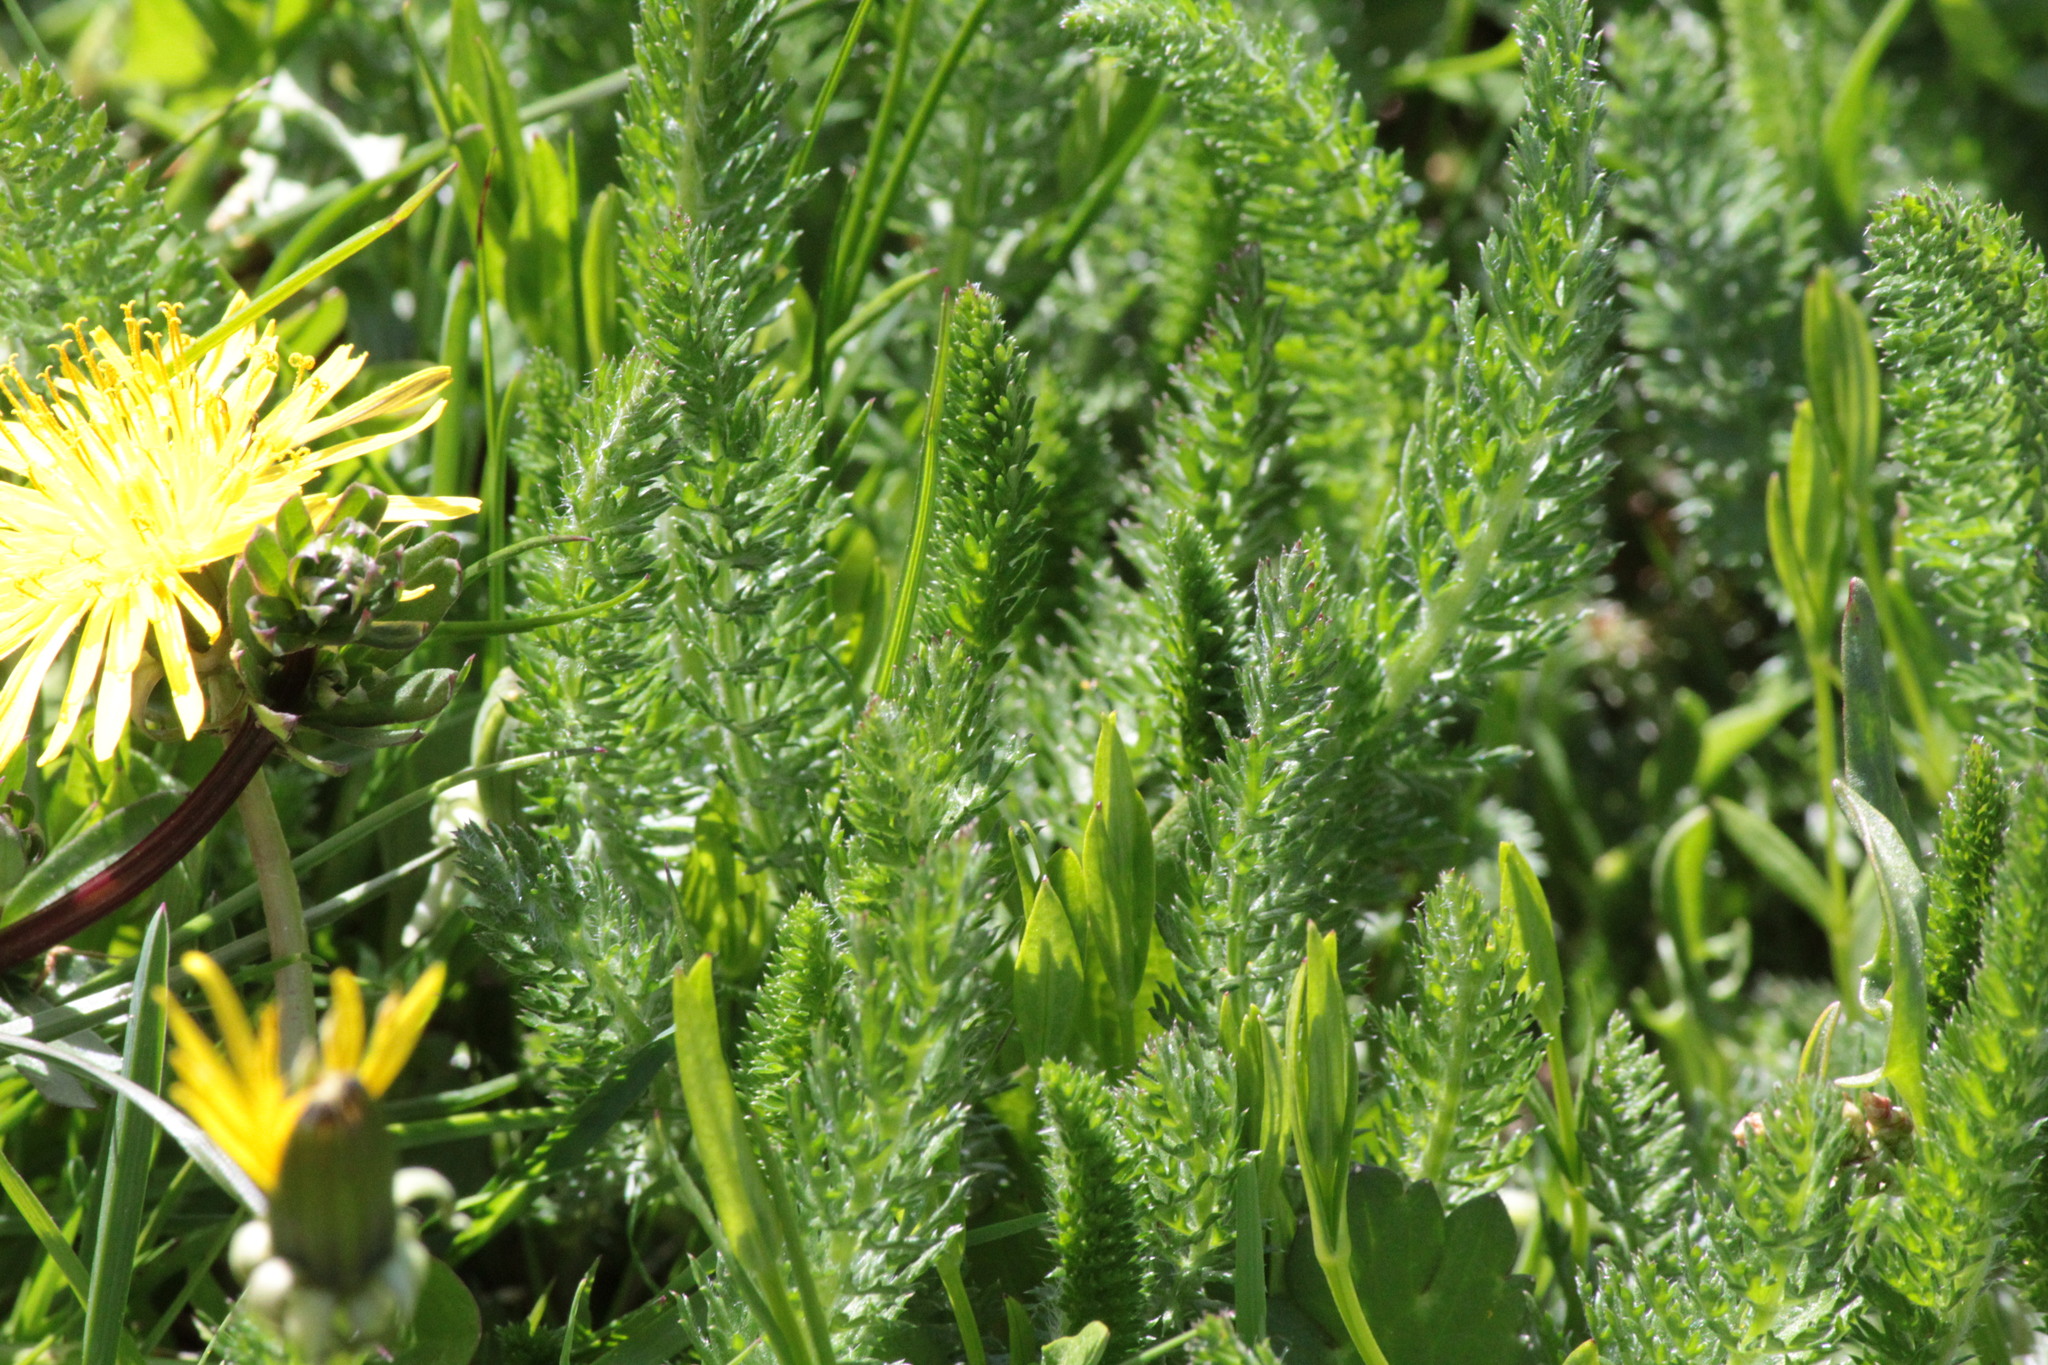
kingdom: Plantae
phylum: Tracheophyta
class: Magnoliopsida
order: Asterales
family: Asteraceae
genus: Achillea
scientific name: Achillea millefolium
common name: Yarrow
